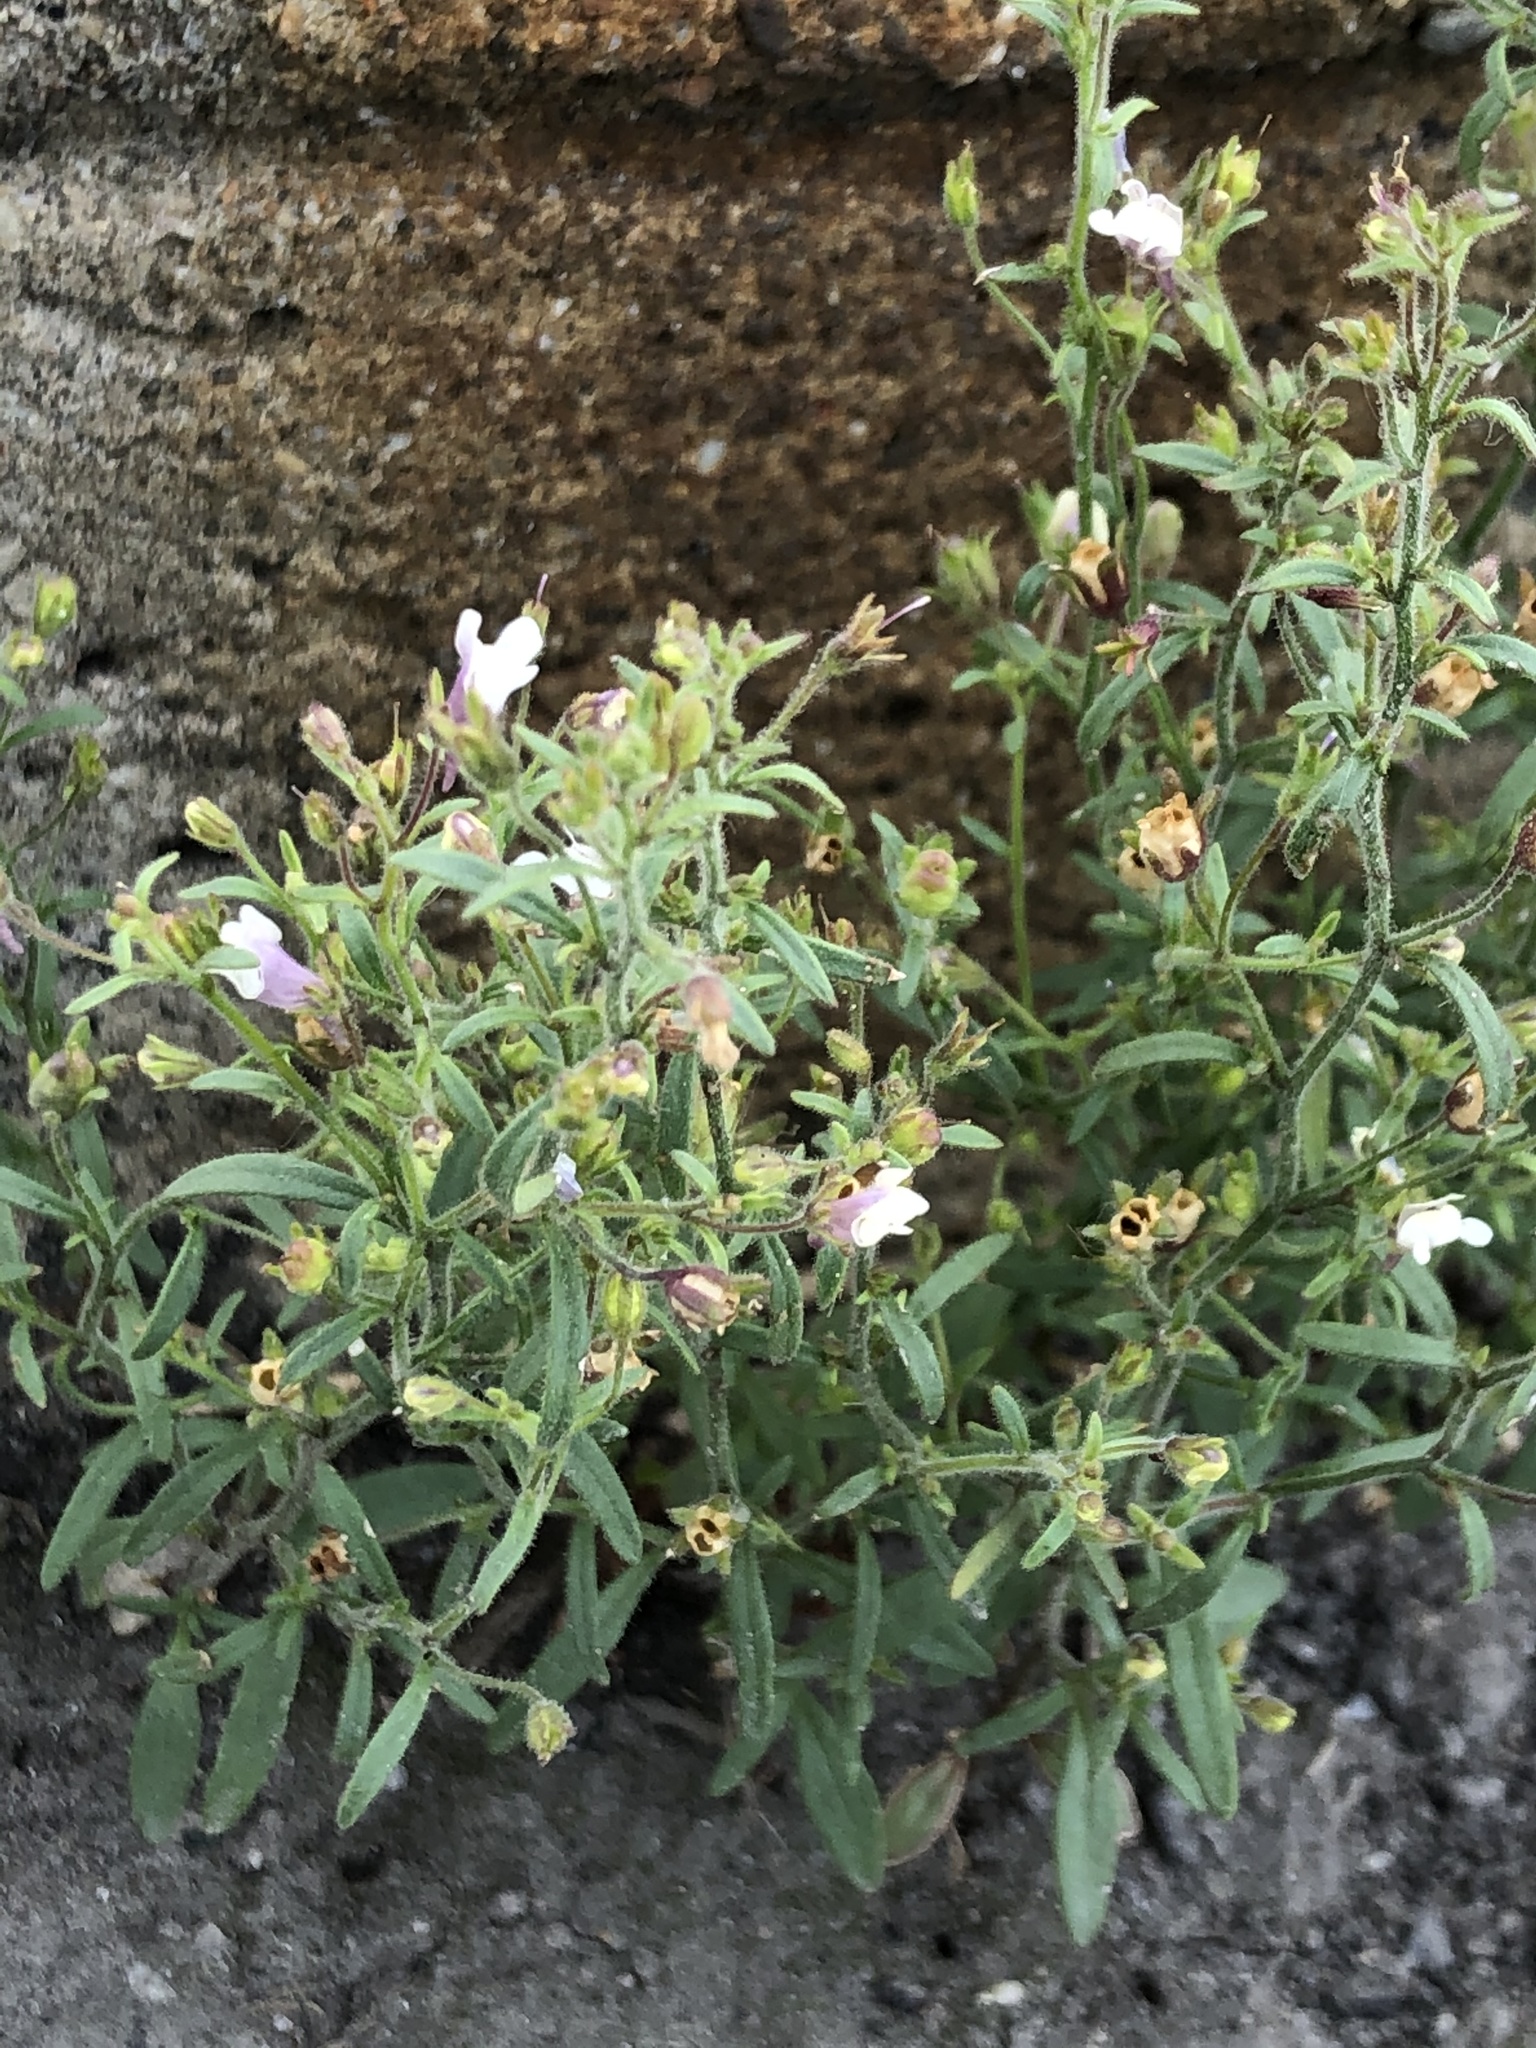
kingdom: Plantae
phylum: Tracheophyta
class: Magnoliopsida
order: Lamiales
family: Plantaginaceae
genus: Chaenorhinum
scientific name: Chaenorhinum minus
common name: Dwarf snapdragon
